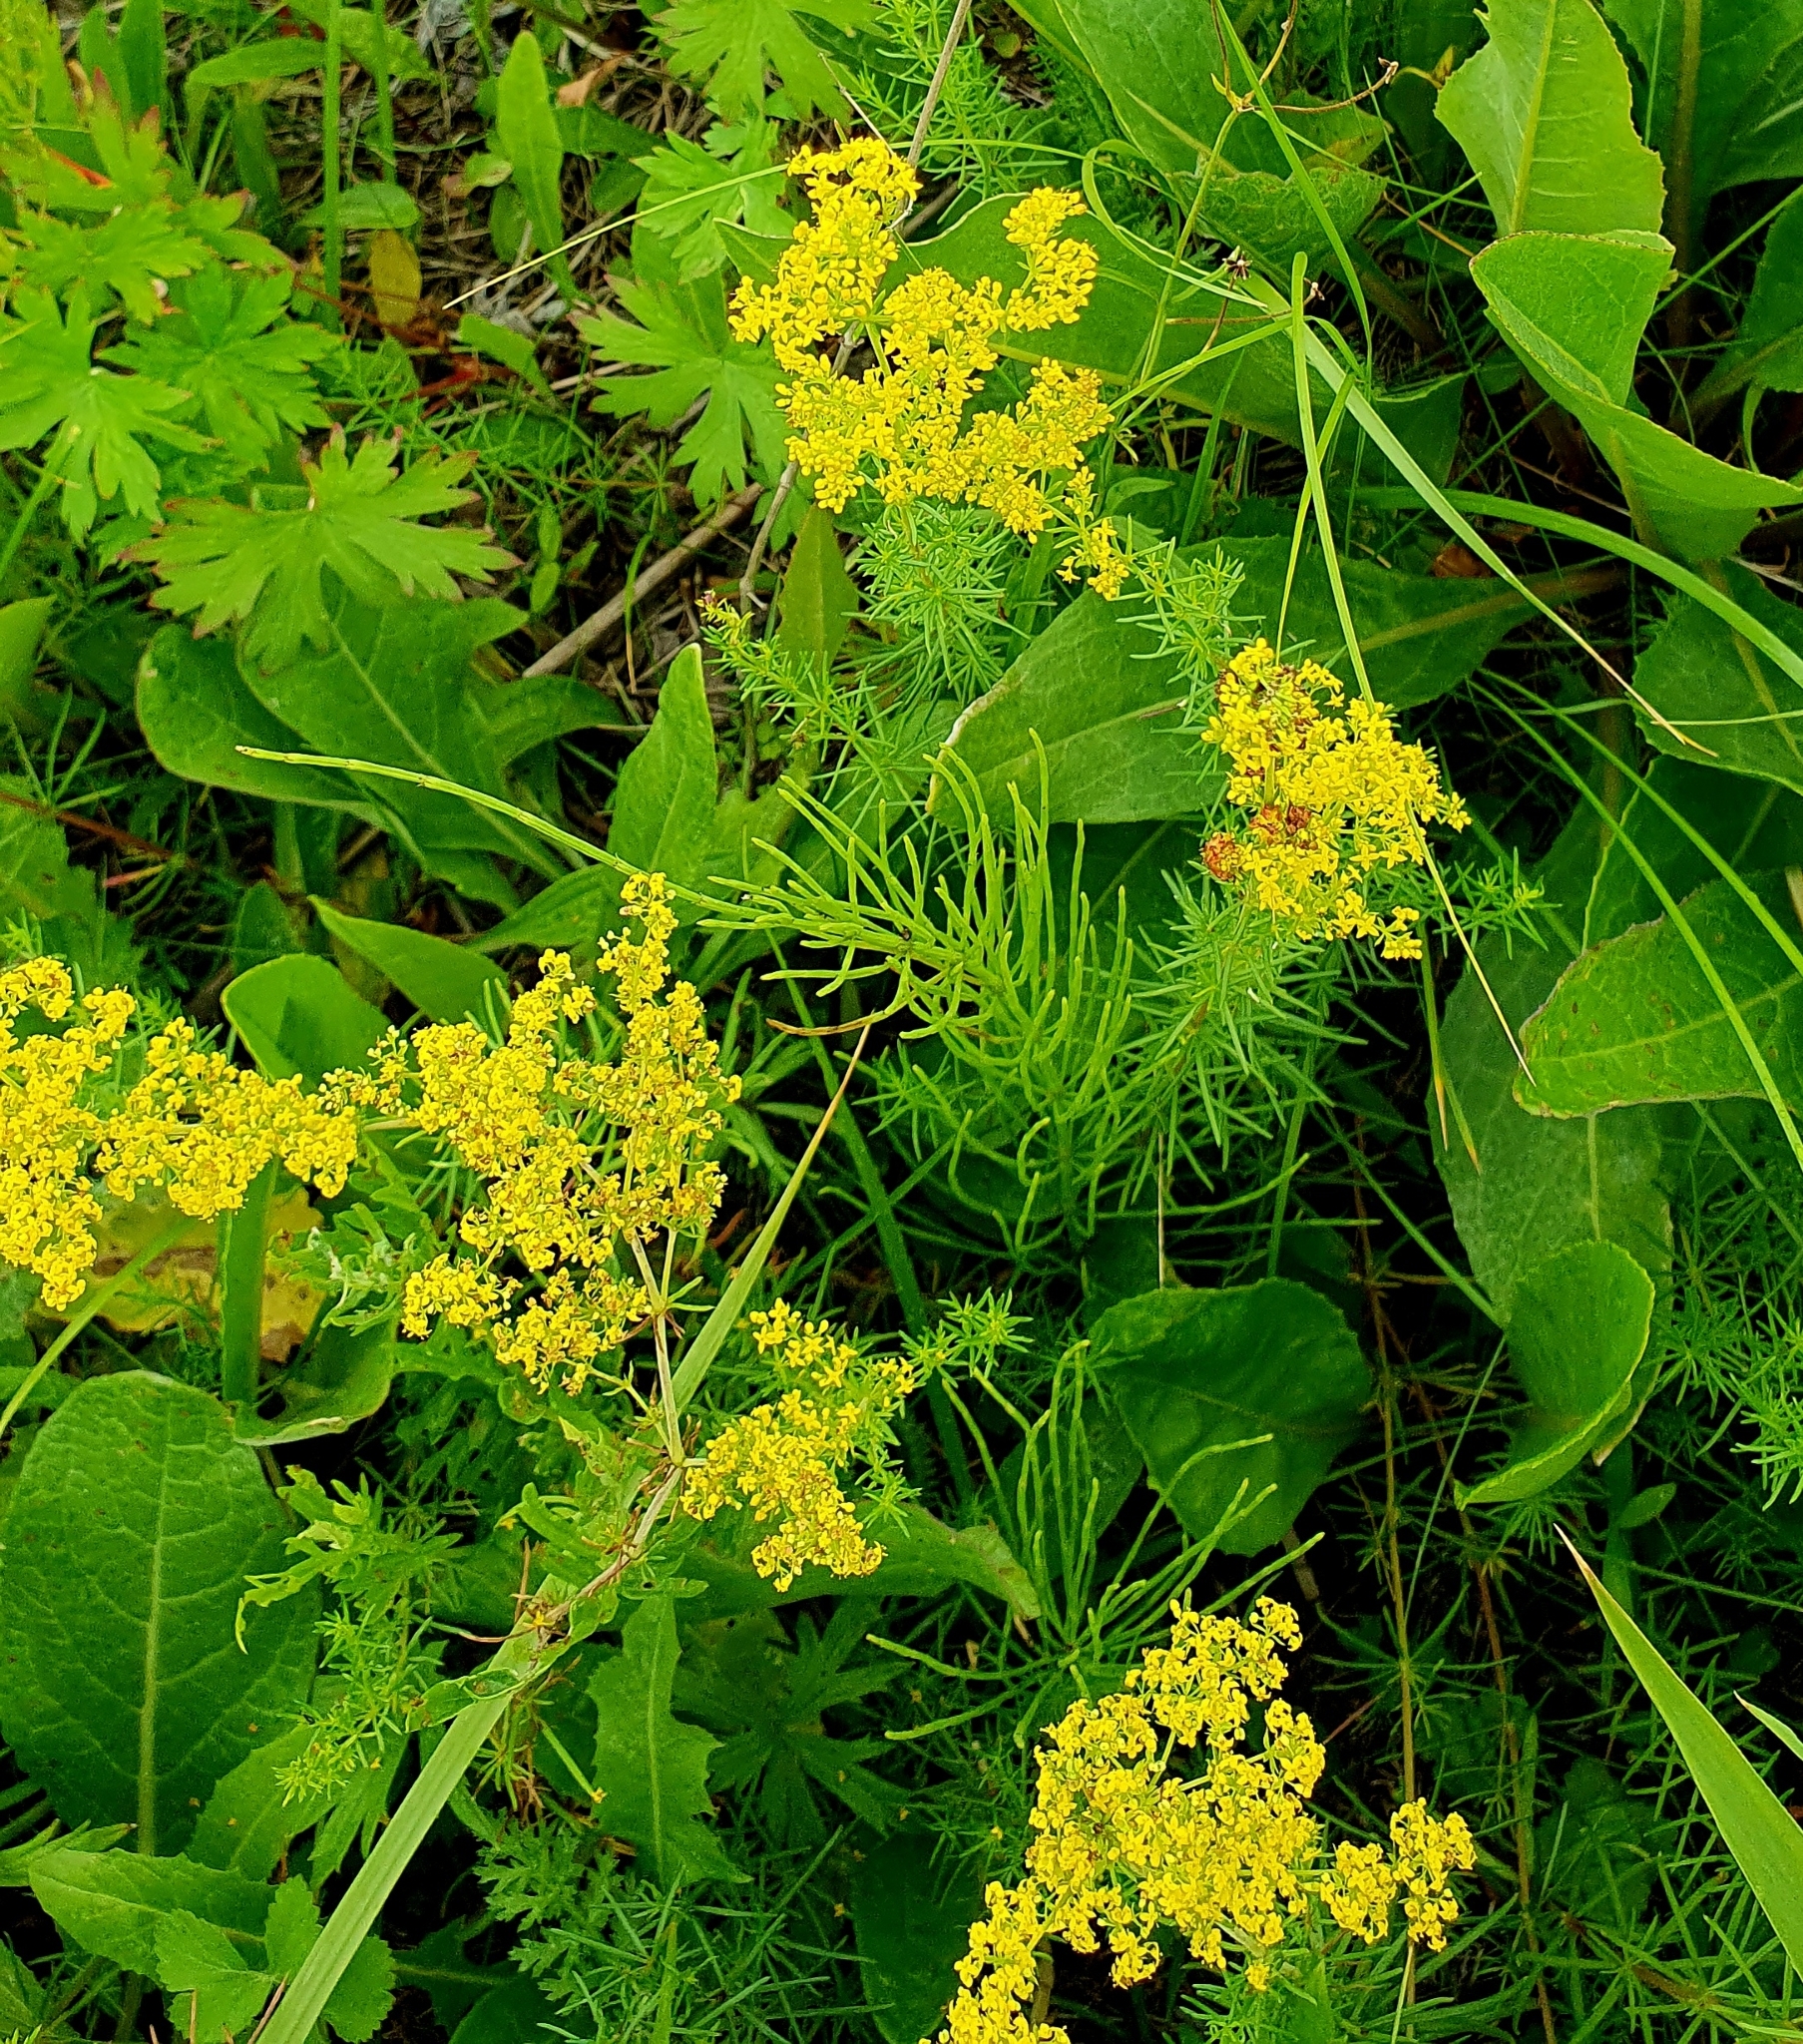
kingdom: Plantae
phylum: Tracheophyta
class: Magnoliopsida
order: Gentianales
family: Rubiaceae
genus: Galium
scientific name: Galium verum
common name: Lady's bedstraw
